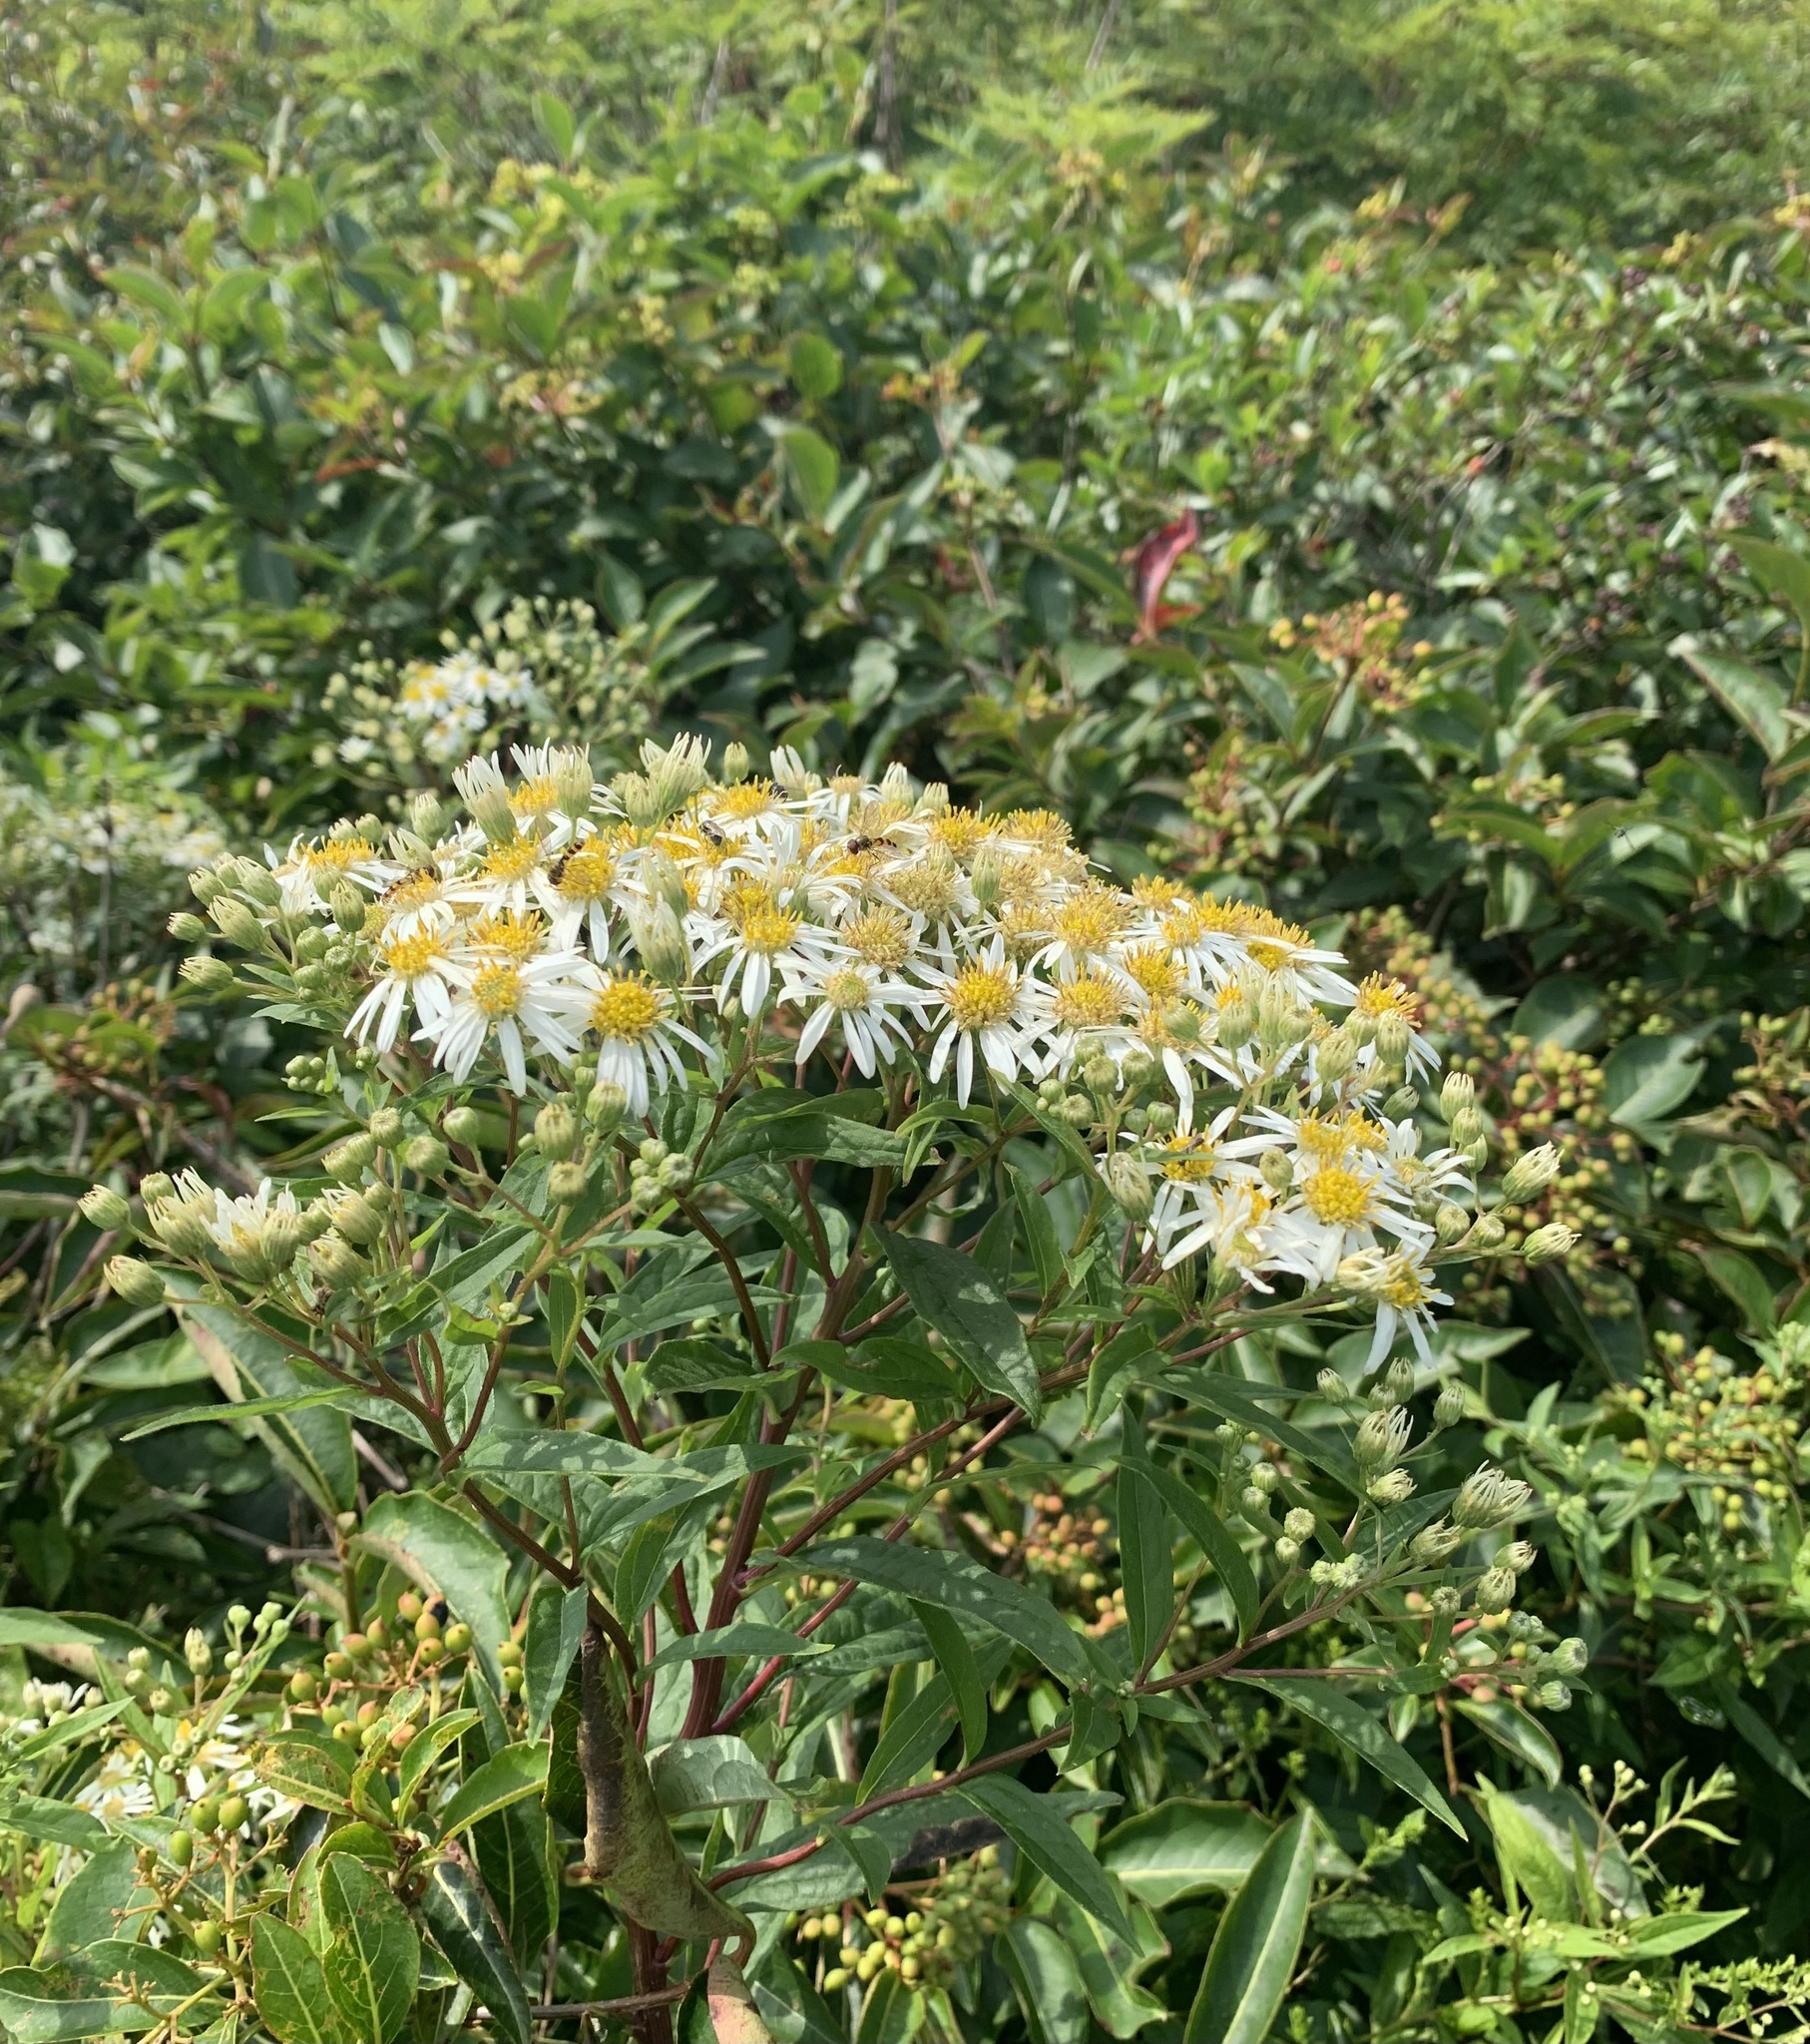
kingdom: Plantae
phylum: Tracheophyta
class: Magnoliopsida
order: Asterales
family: Asteraceae
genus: Doellingeria
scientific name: Doellingeria umbellata
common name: Flat-top white aster
